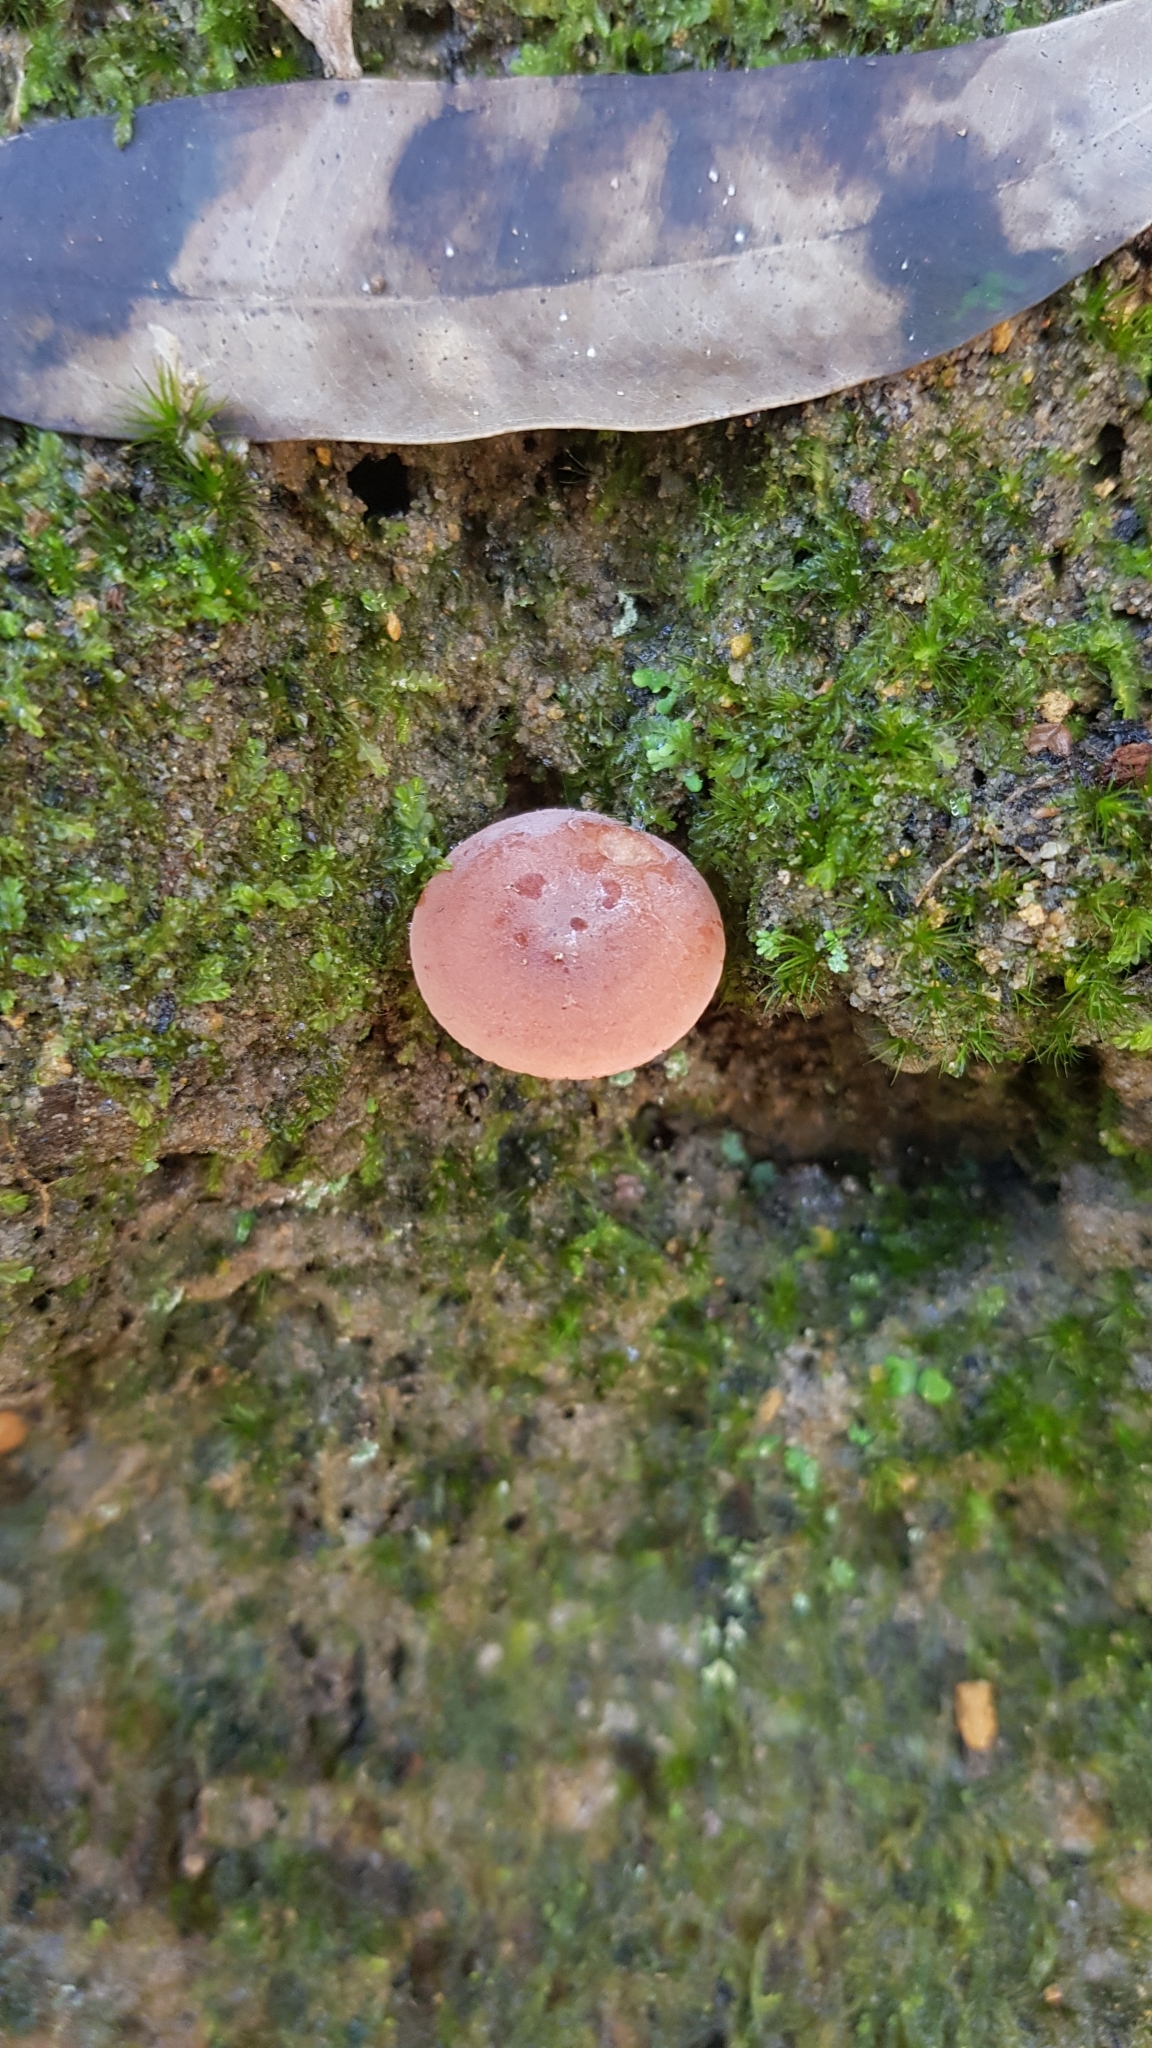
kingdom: Fungi
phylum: Basidiomycota
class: Agaricomycetes
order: Russulales
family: Russulaceae
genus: Lactarius
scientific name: Lactarius eucalypti
